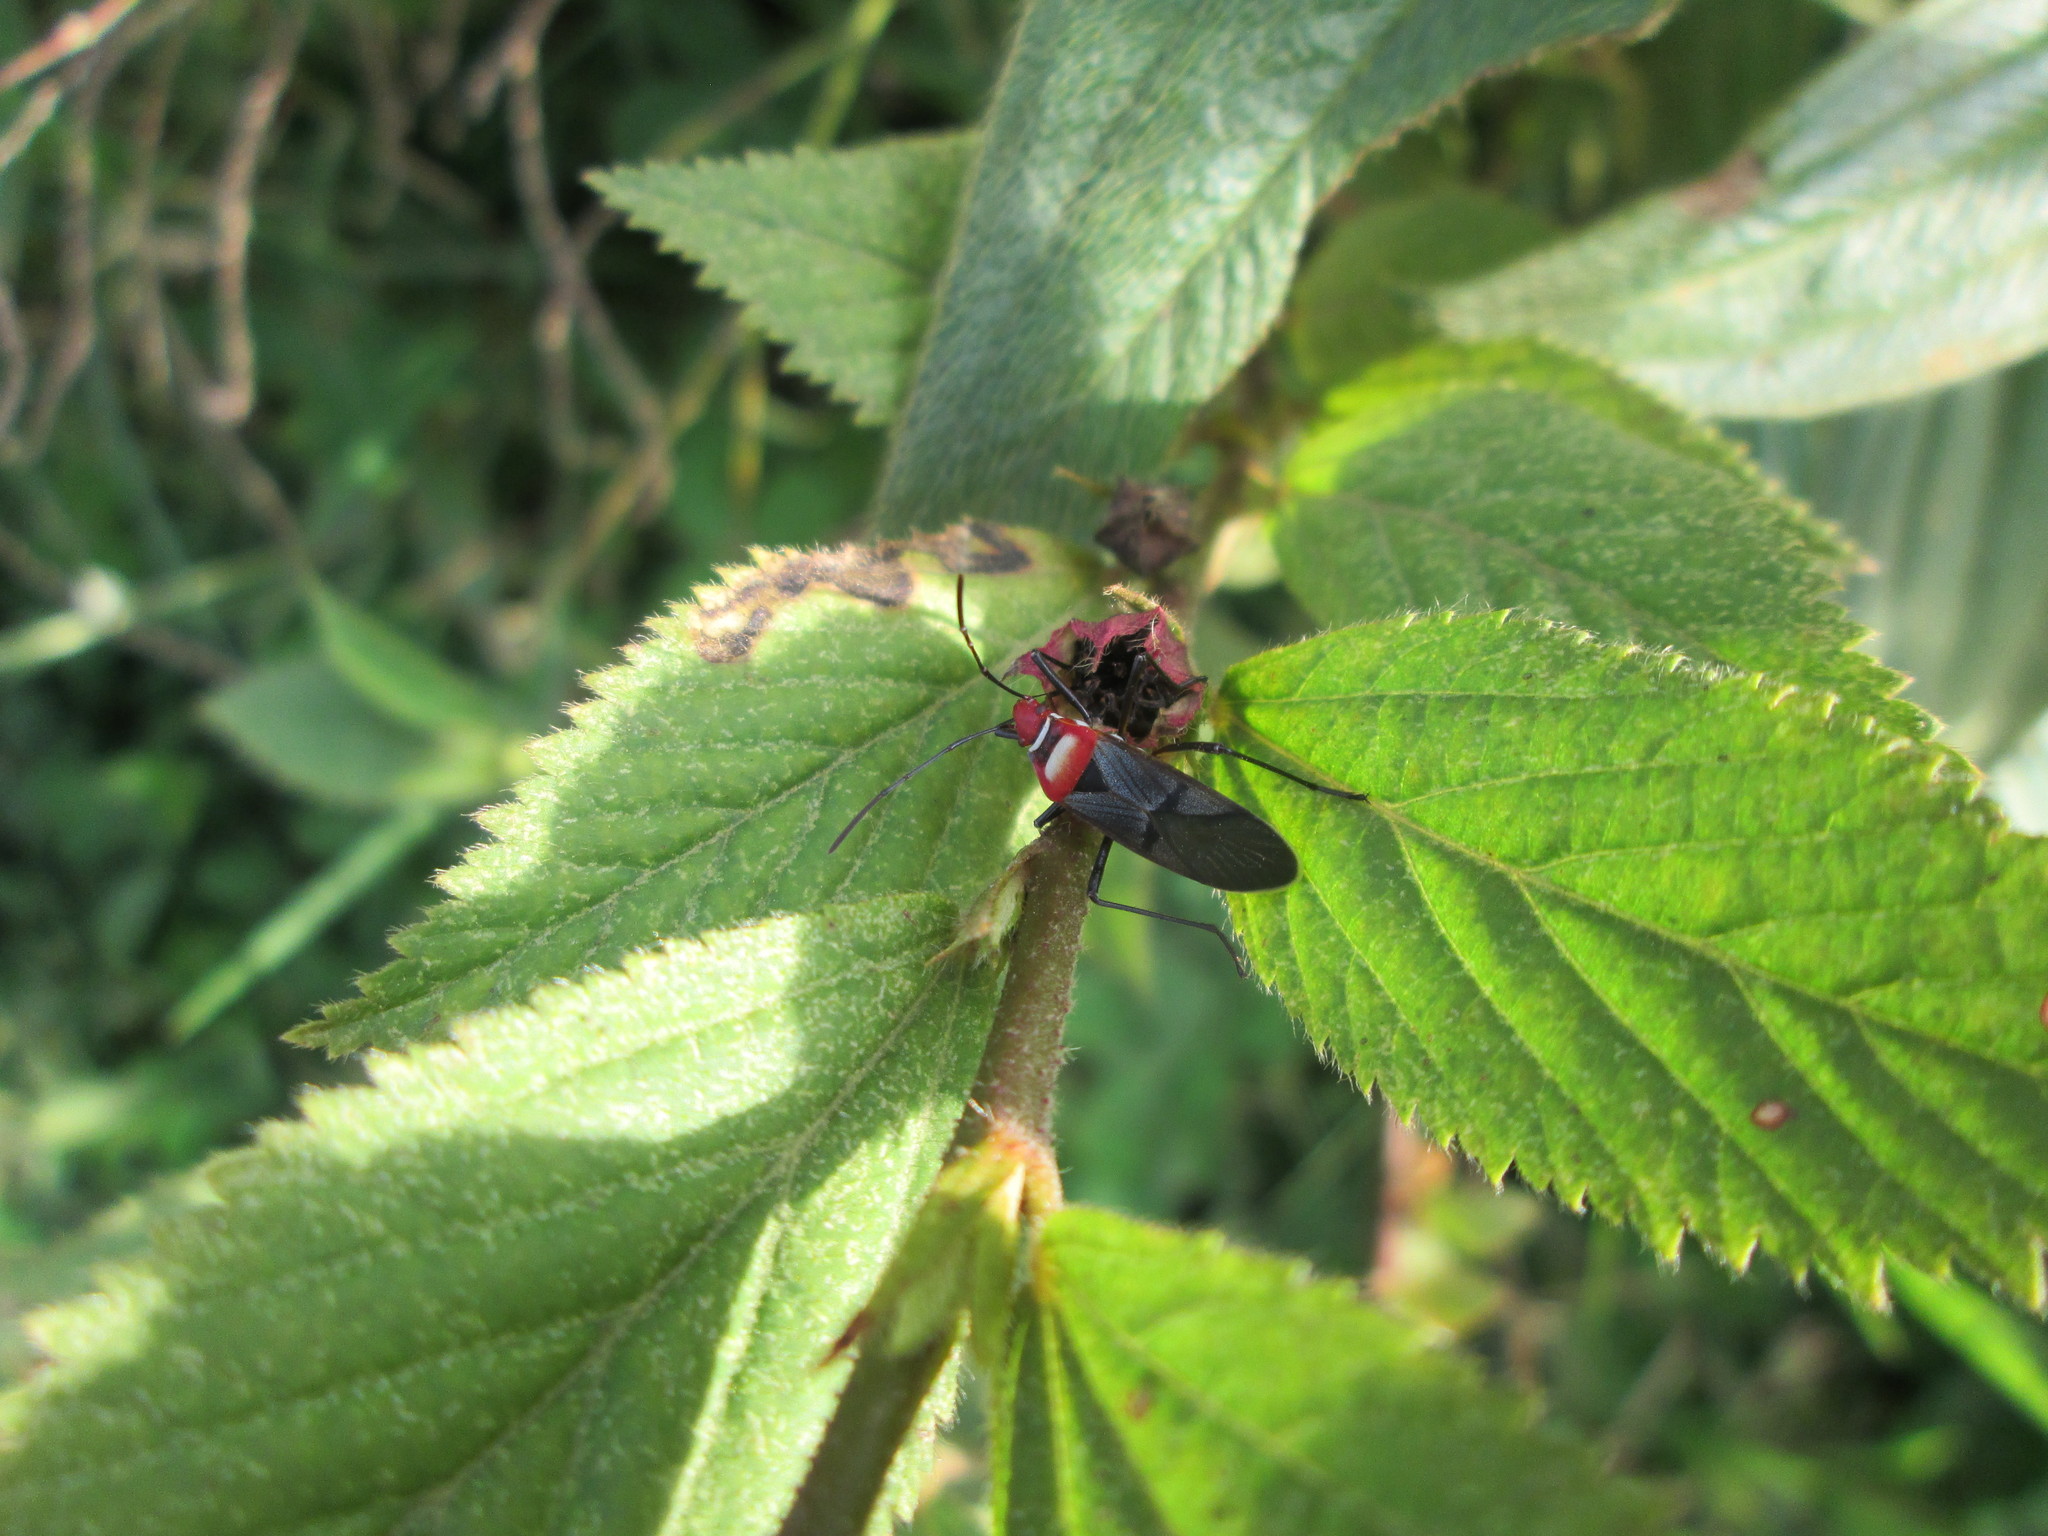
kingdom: Animalia
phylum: Arthropoda
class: Insecta
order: Hemiptera
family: Pyrrhocoridae
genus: Dysdercus
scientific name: Dysdercus collaris
